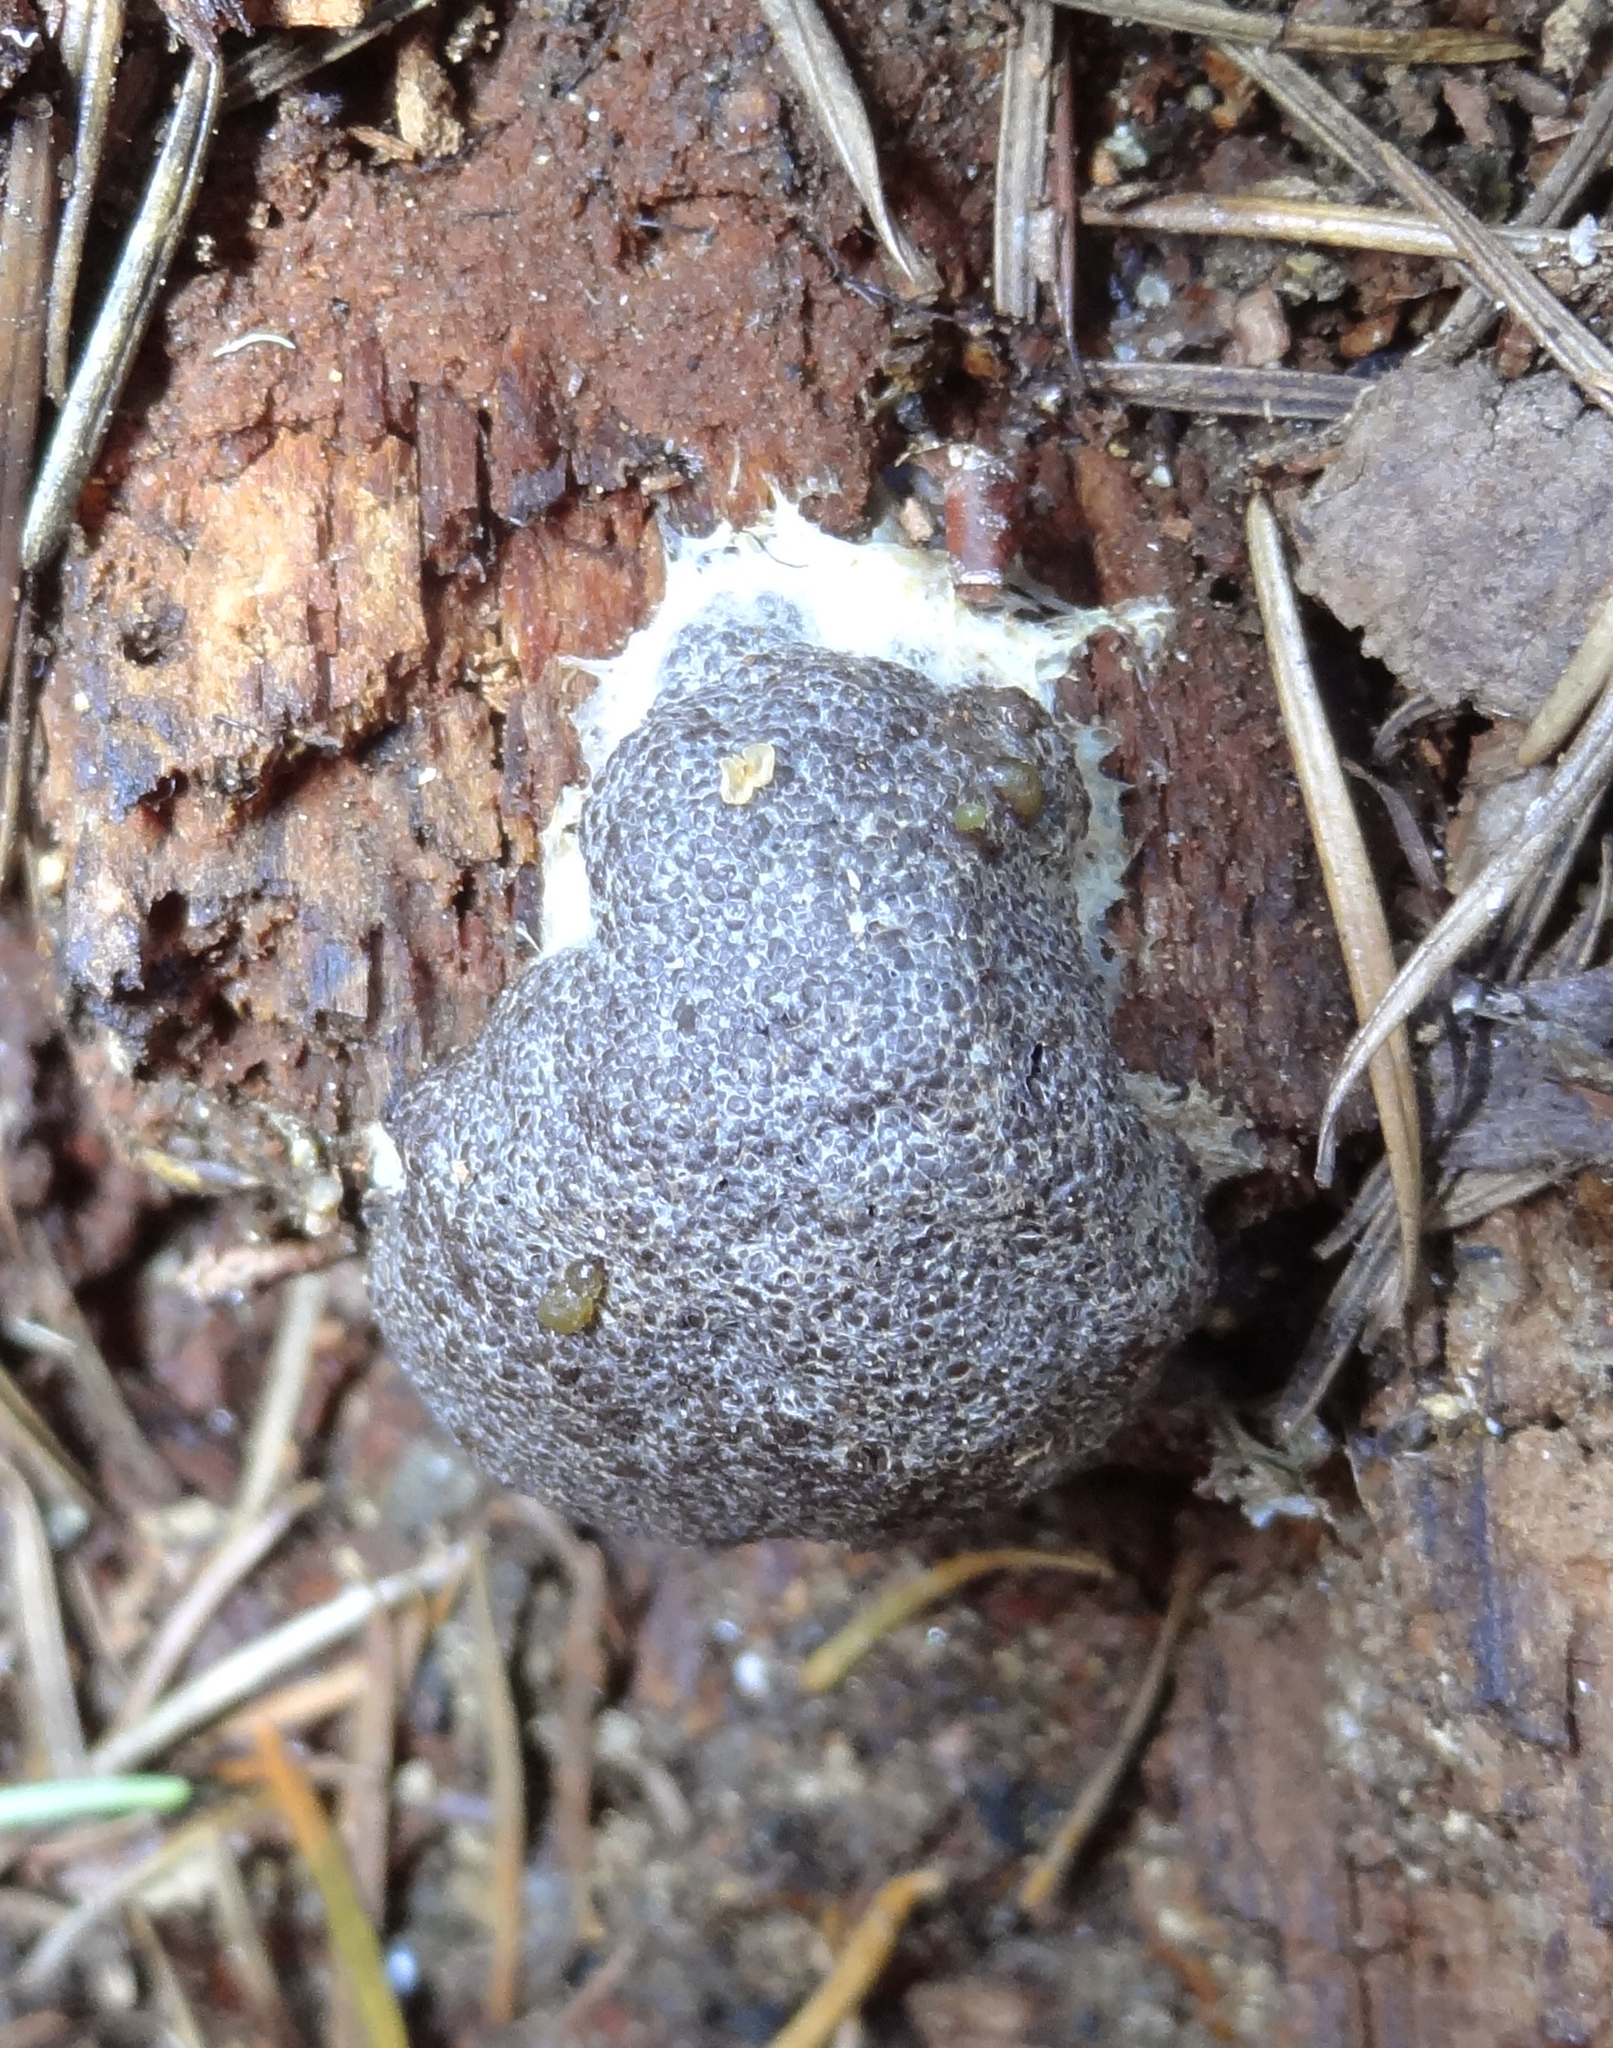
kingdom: Protozoa
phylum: Mycetozoa
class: Myxomycetes
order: Cribrariales
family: Tubiferaceae
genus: Licaethalium
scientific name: Licaethalium olivaceum
